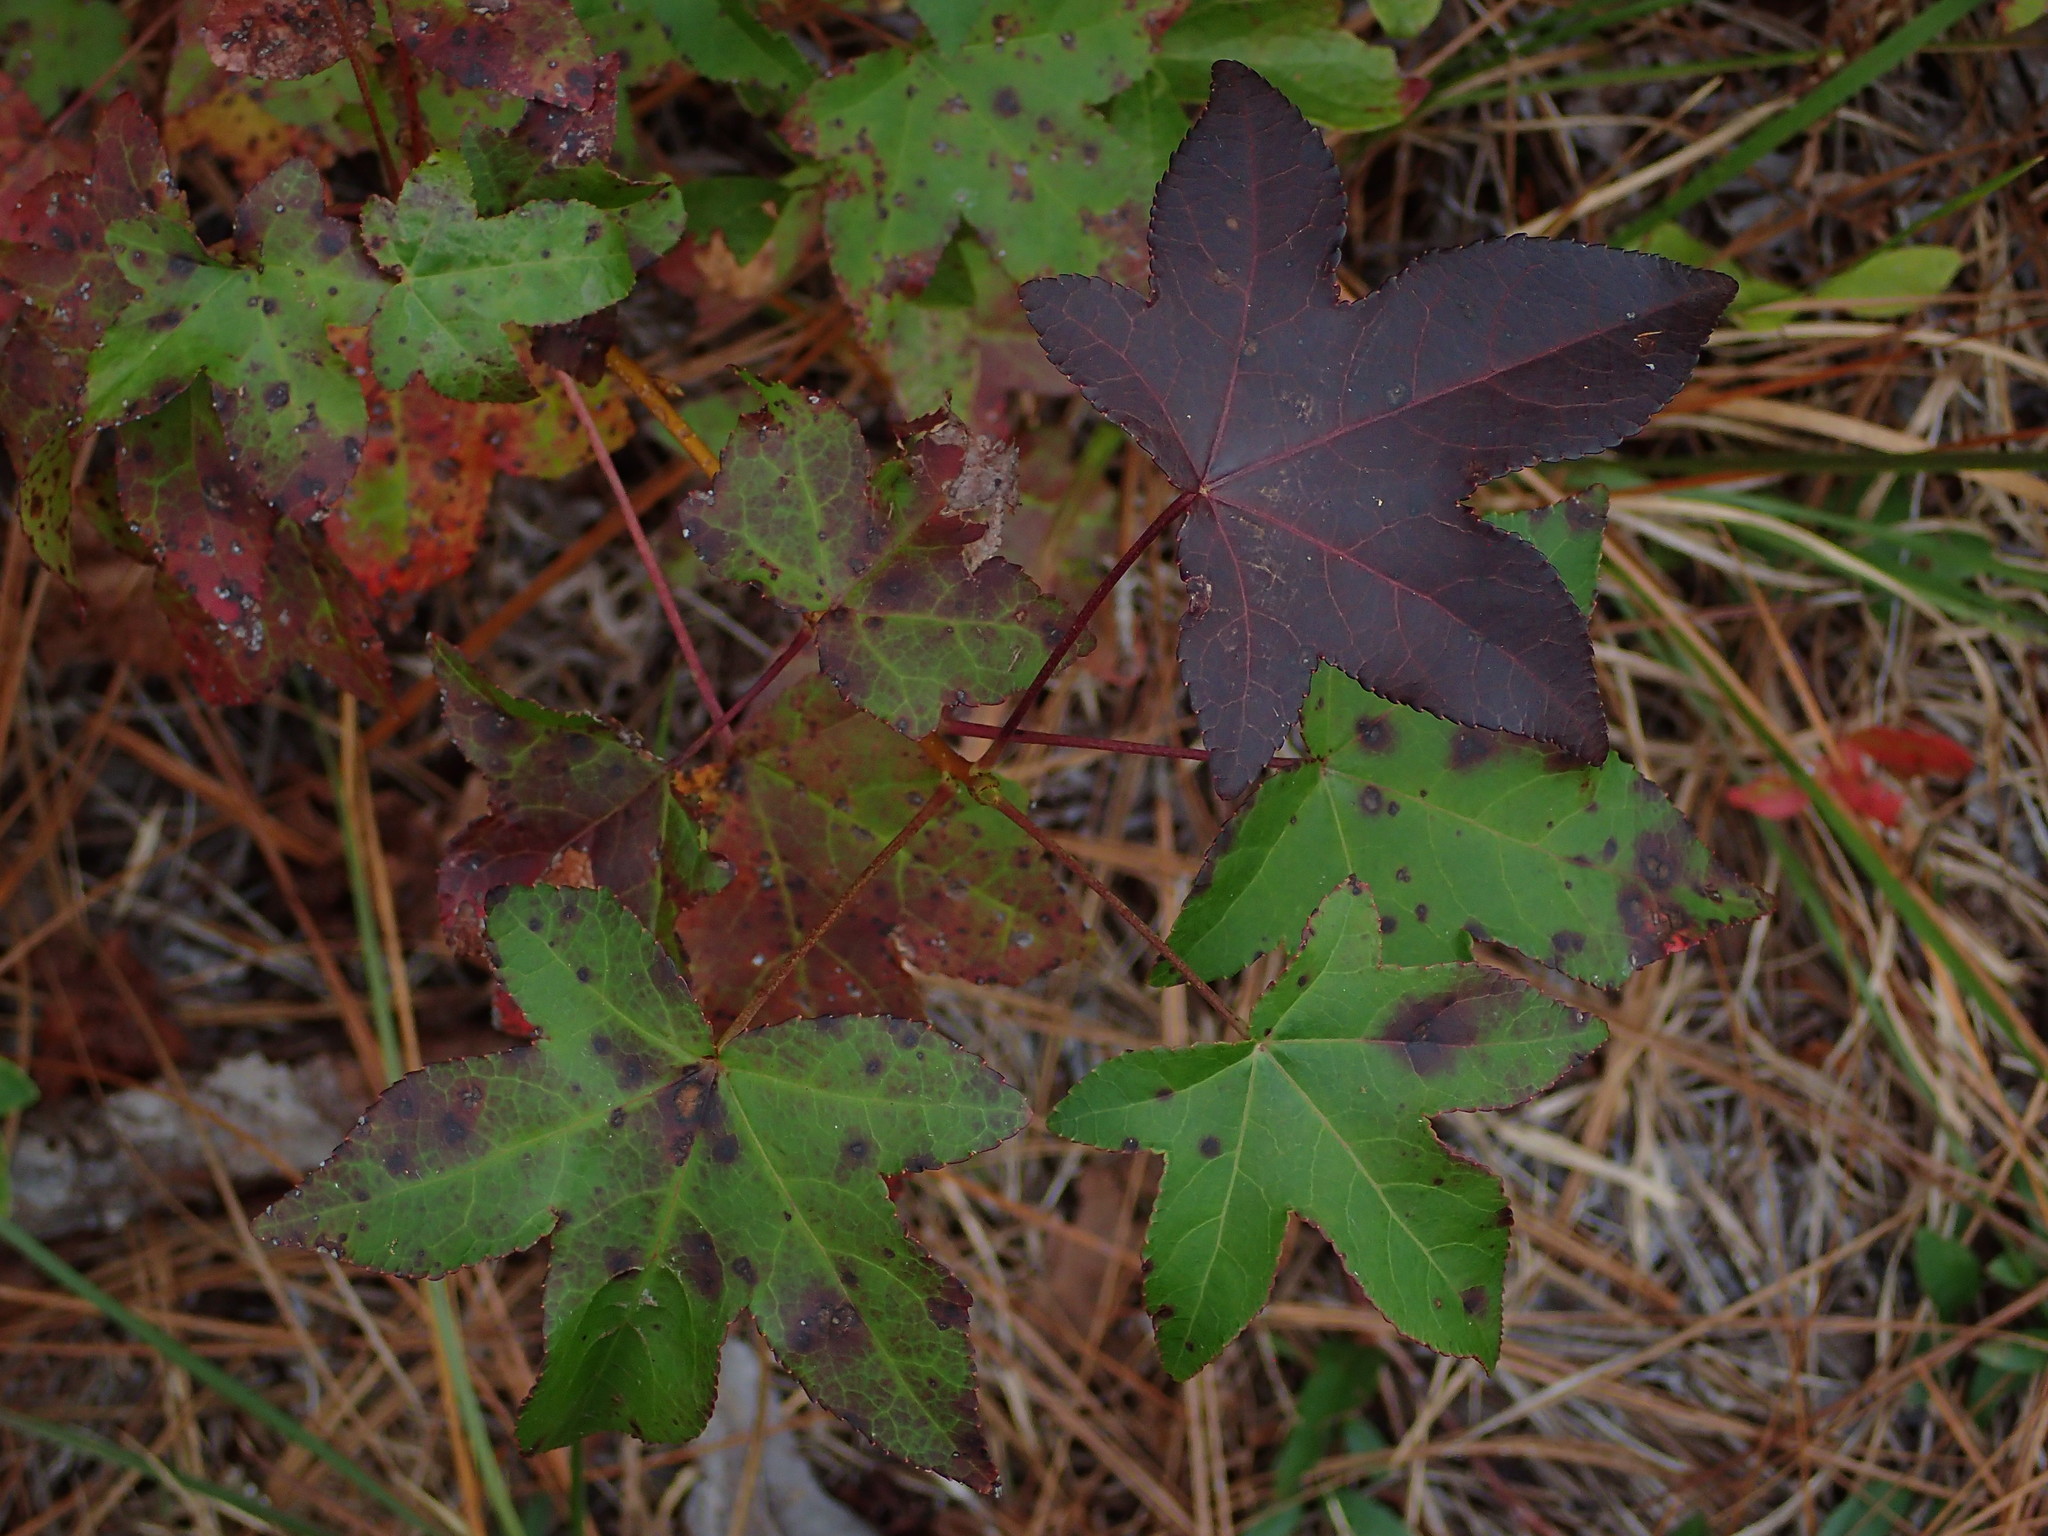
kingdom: Plantae
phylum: Tracheophyta
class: Magnoliopsida
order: Saxifragales
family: Altingiaceae
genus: Liquidambar
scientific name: Liquidambar styraciflua
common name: Sweet gum
